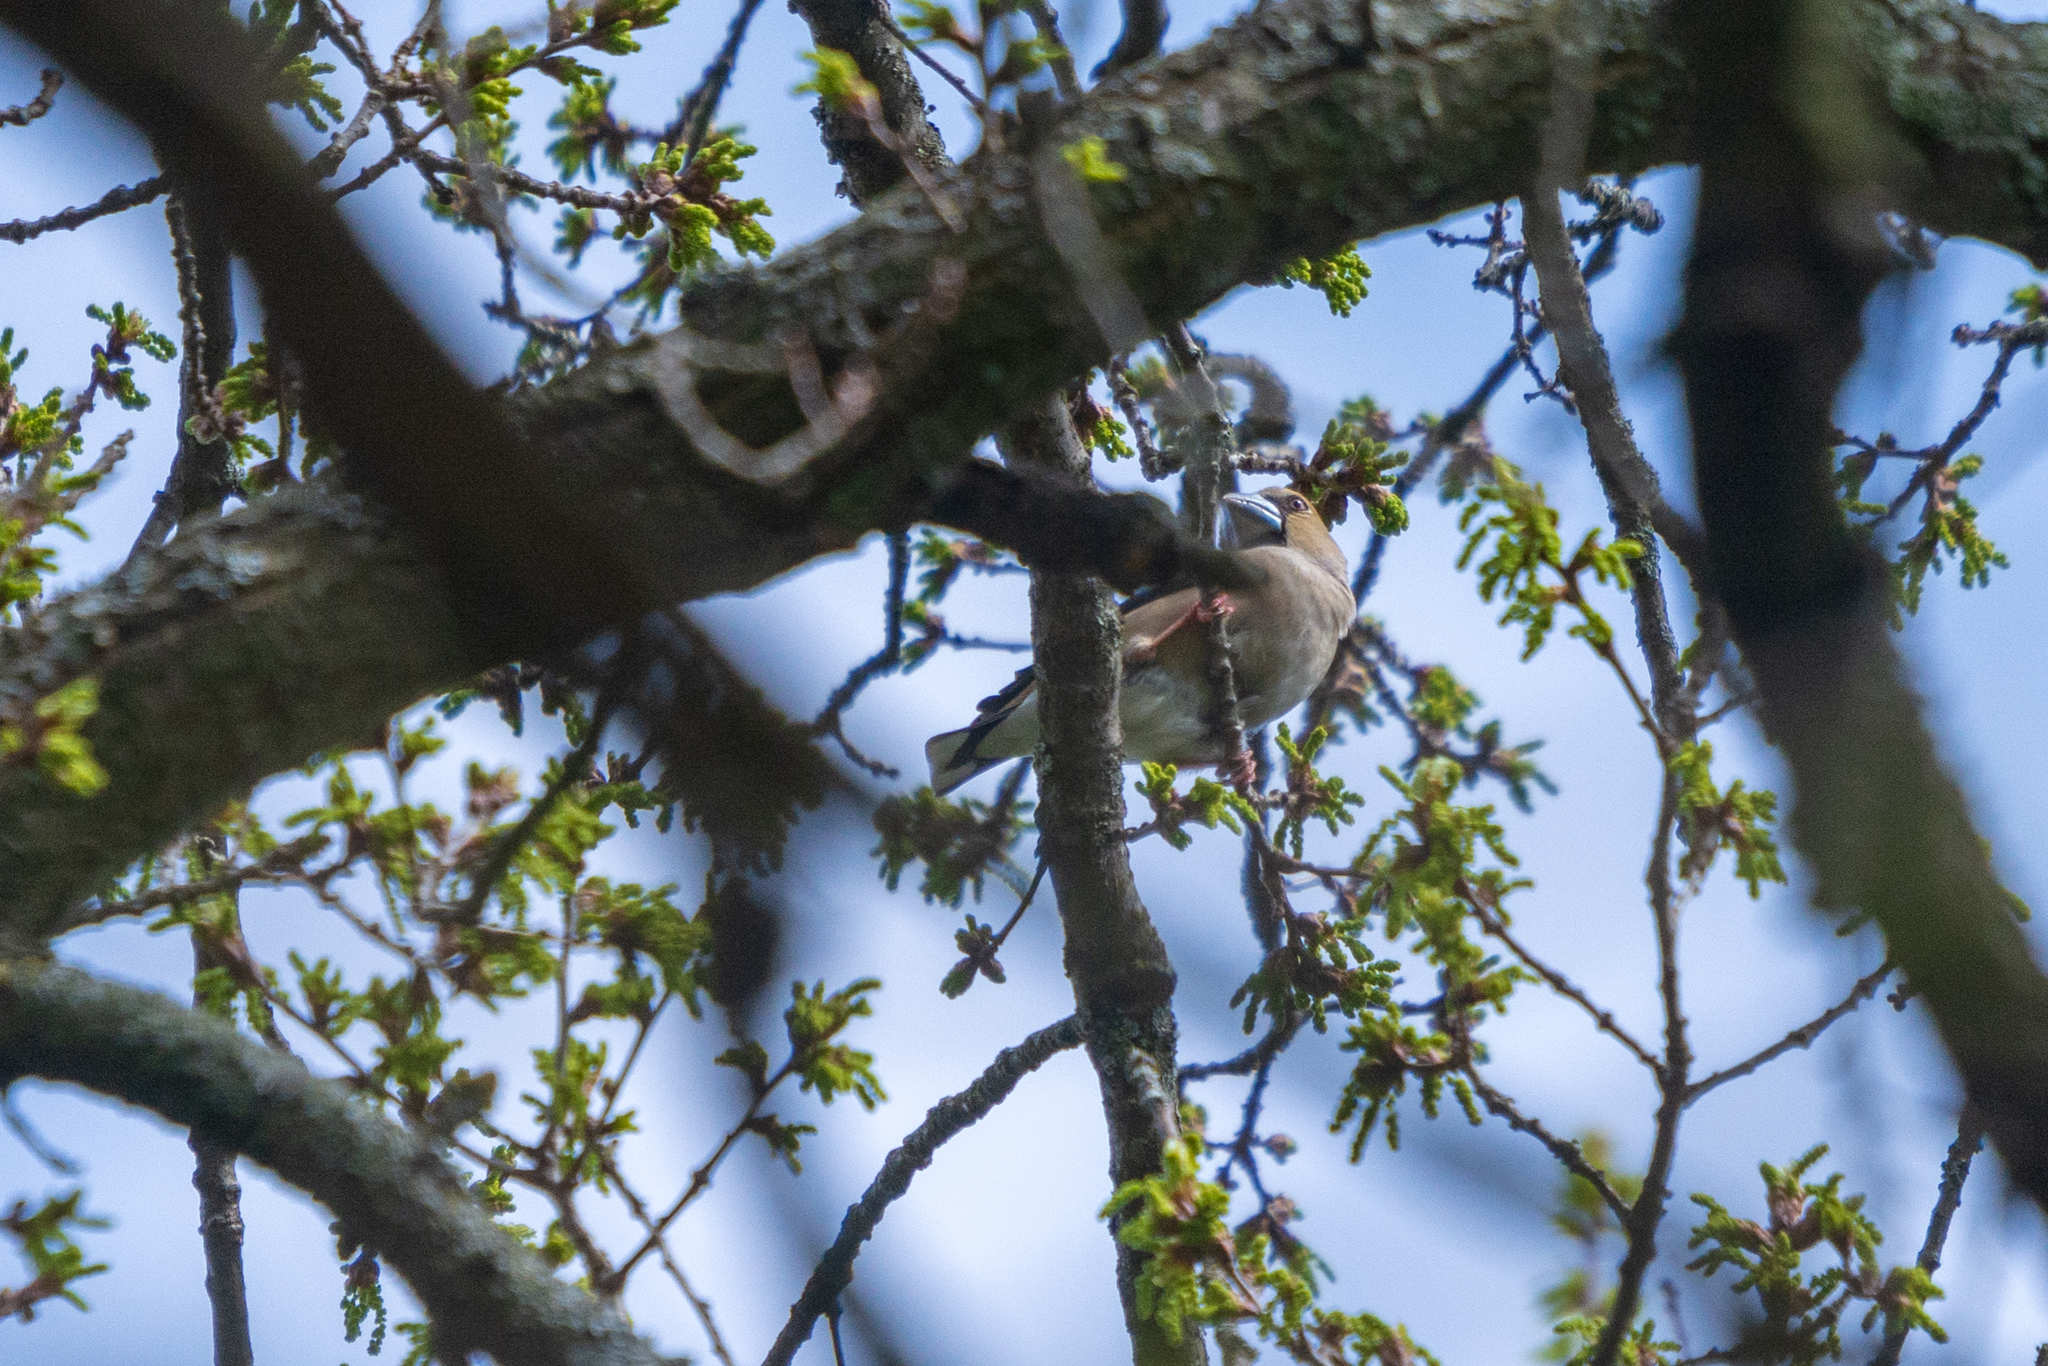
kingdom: Animalia
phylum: Chordata
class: Aves
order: Passeriformes
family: Fringillidae
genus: Coccothraustes
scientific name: Coccothraustes coccothraustes
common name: Hawfinch
